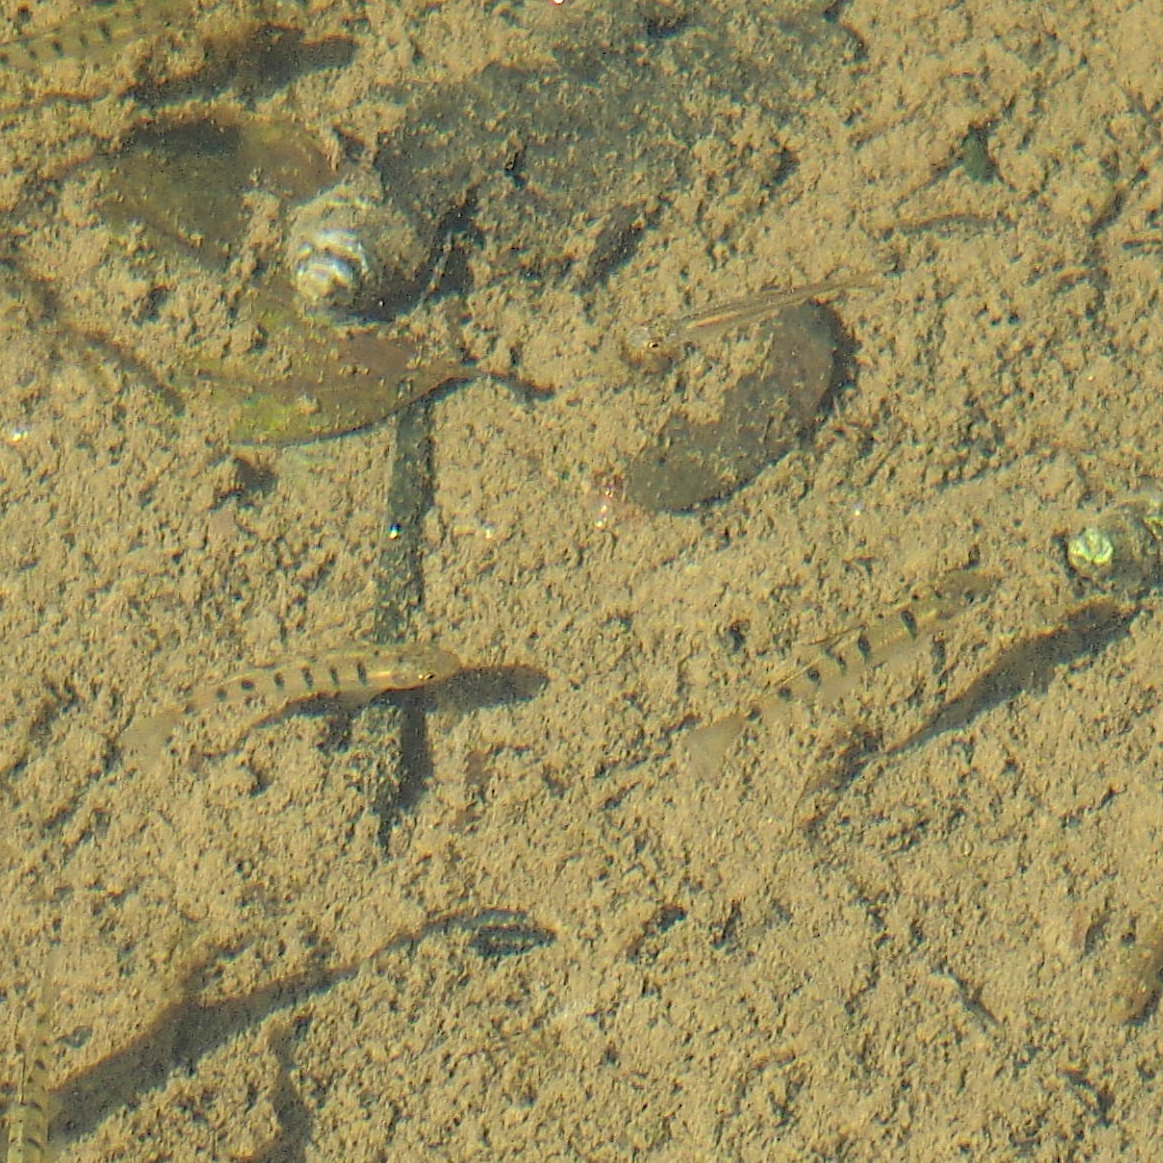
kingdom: Animalia
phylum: Chordata
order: Cypriniformes
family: Cyprinidae
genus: Acrossocheilus
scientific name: Acrossocheilus paradoxus
